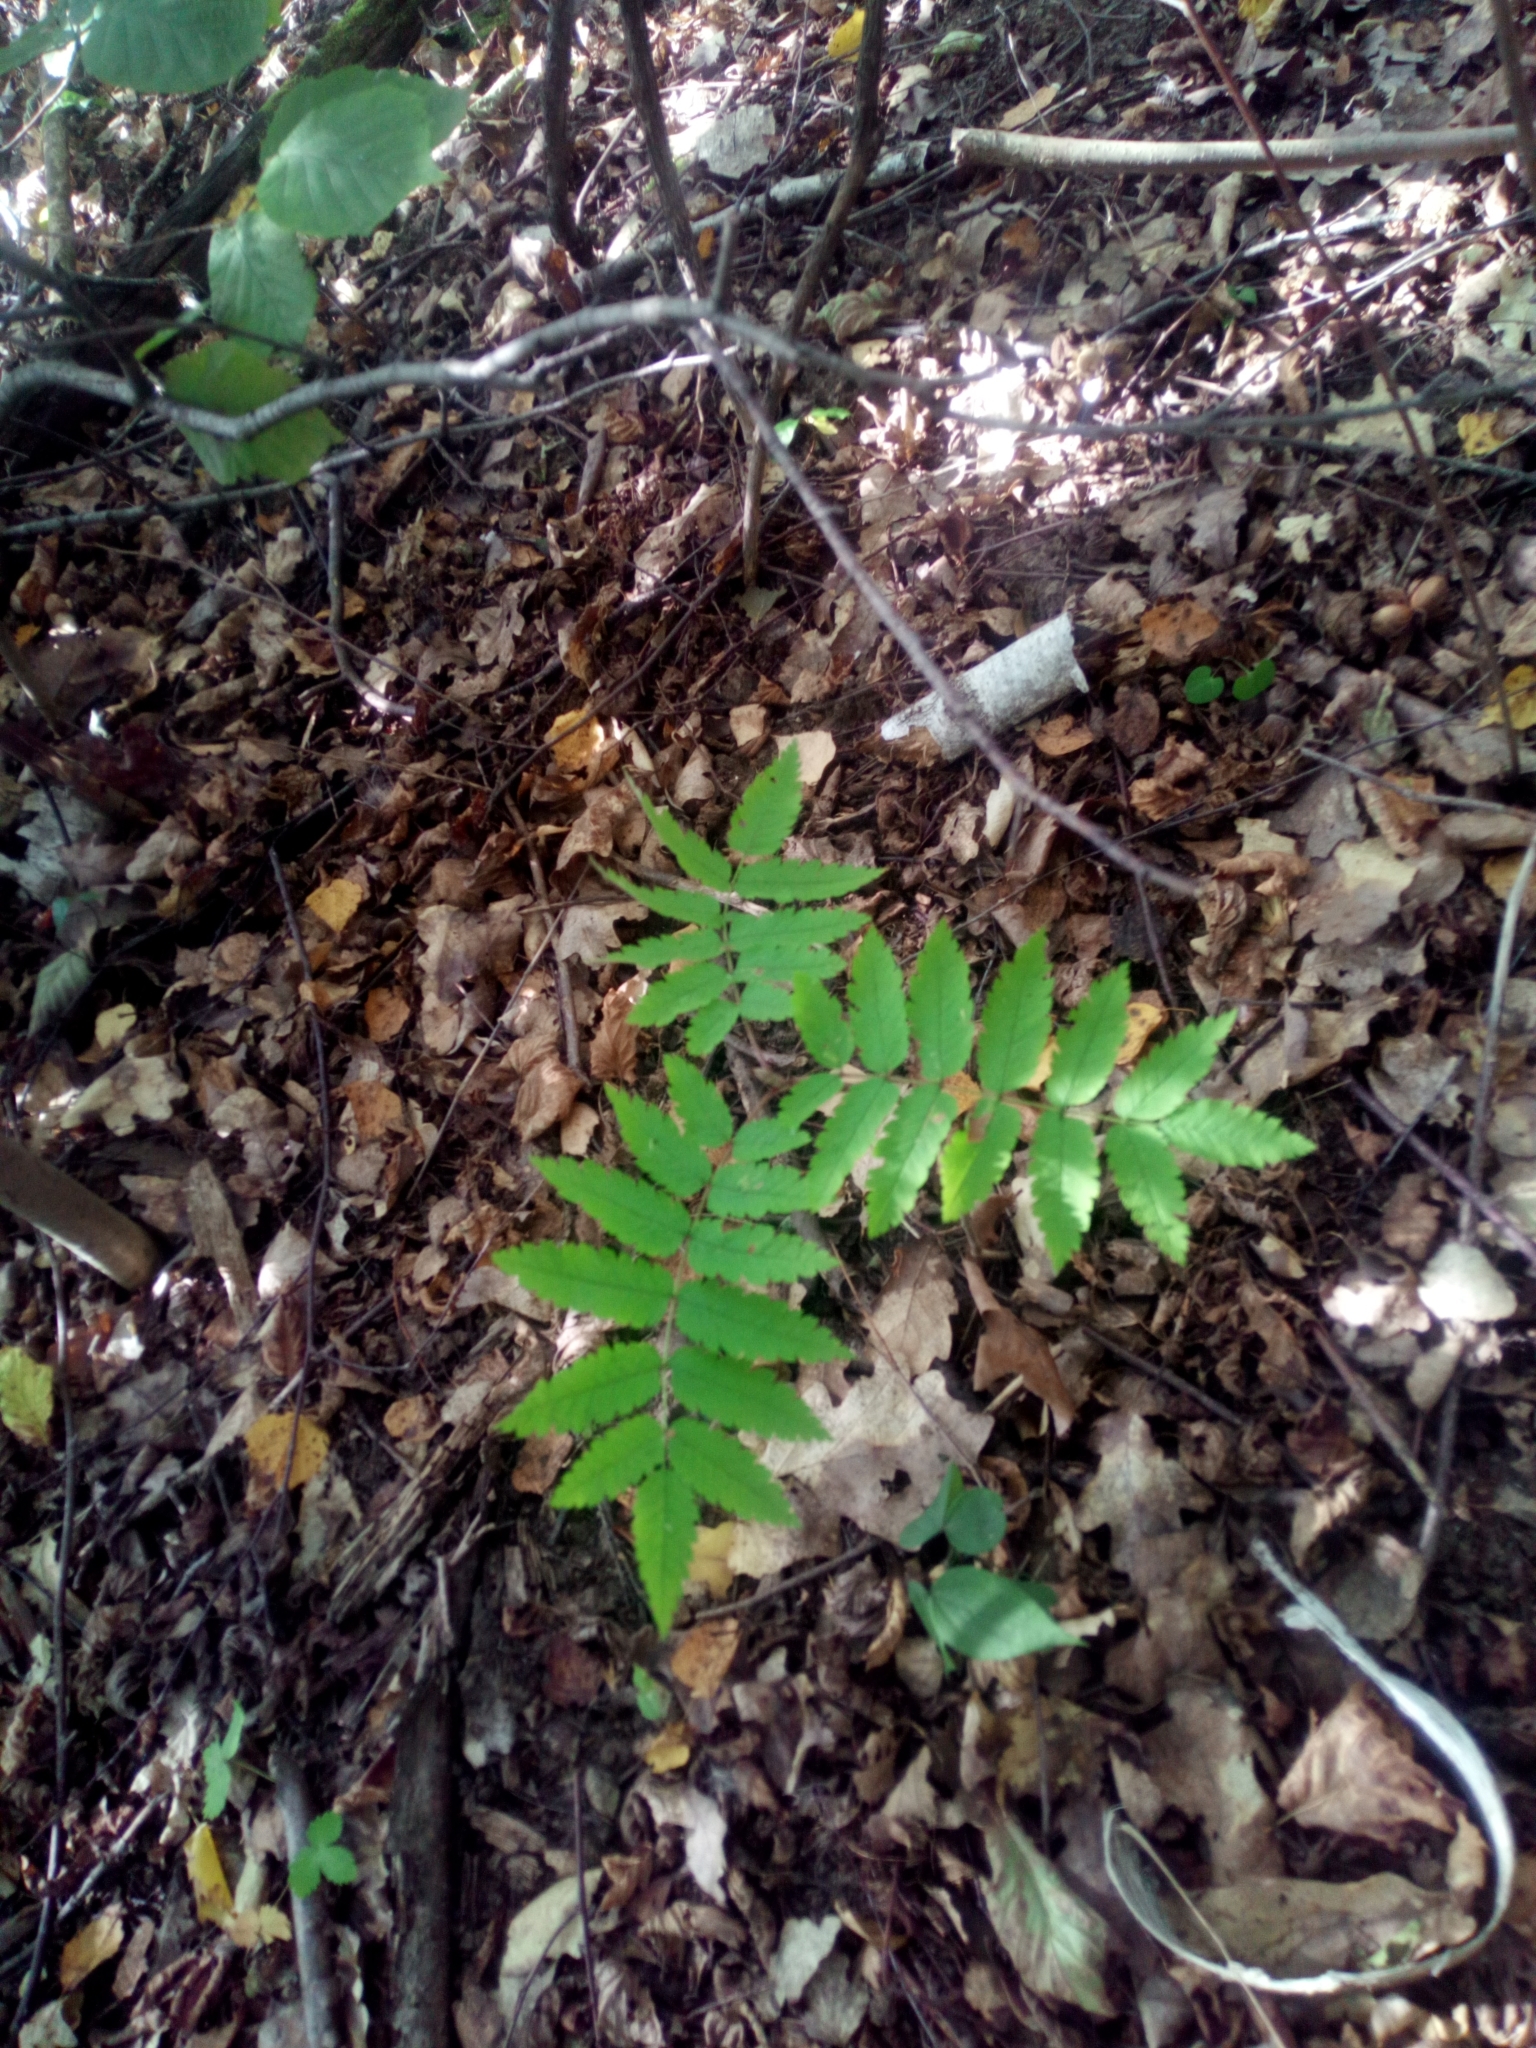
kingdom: Plantae
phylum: Tracheophyta
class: Magnoliopsida
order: Rosales
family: Rosaceae
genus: Sorbus
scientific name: Sorbus aucuparia
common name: Rowan
